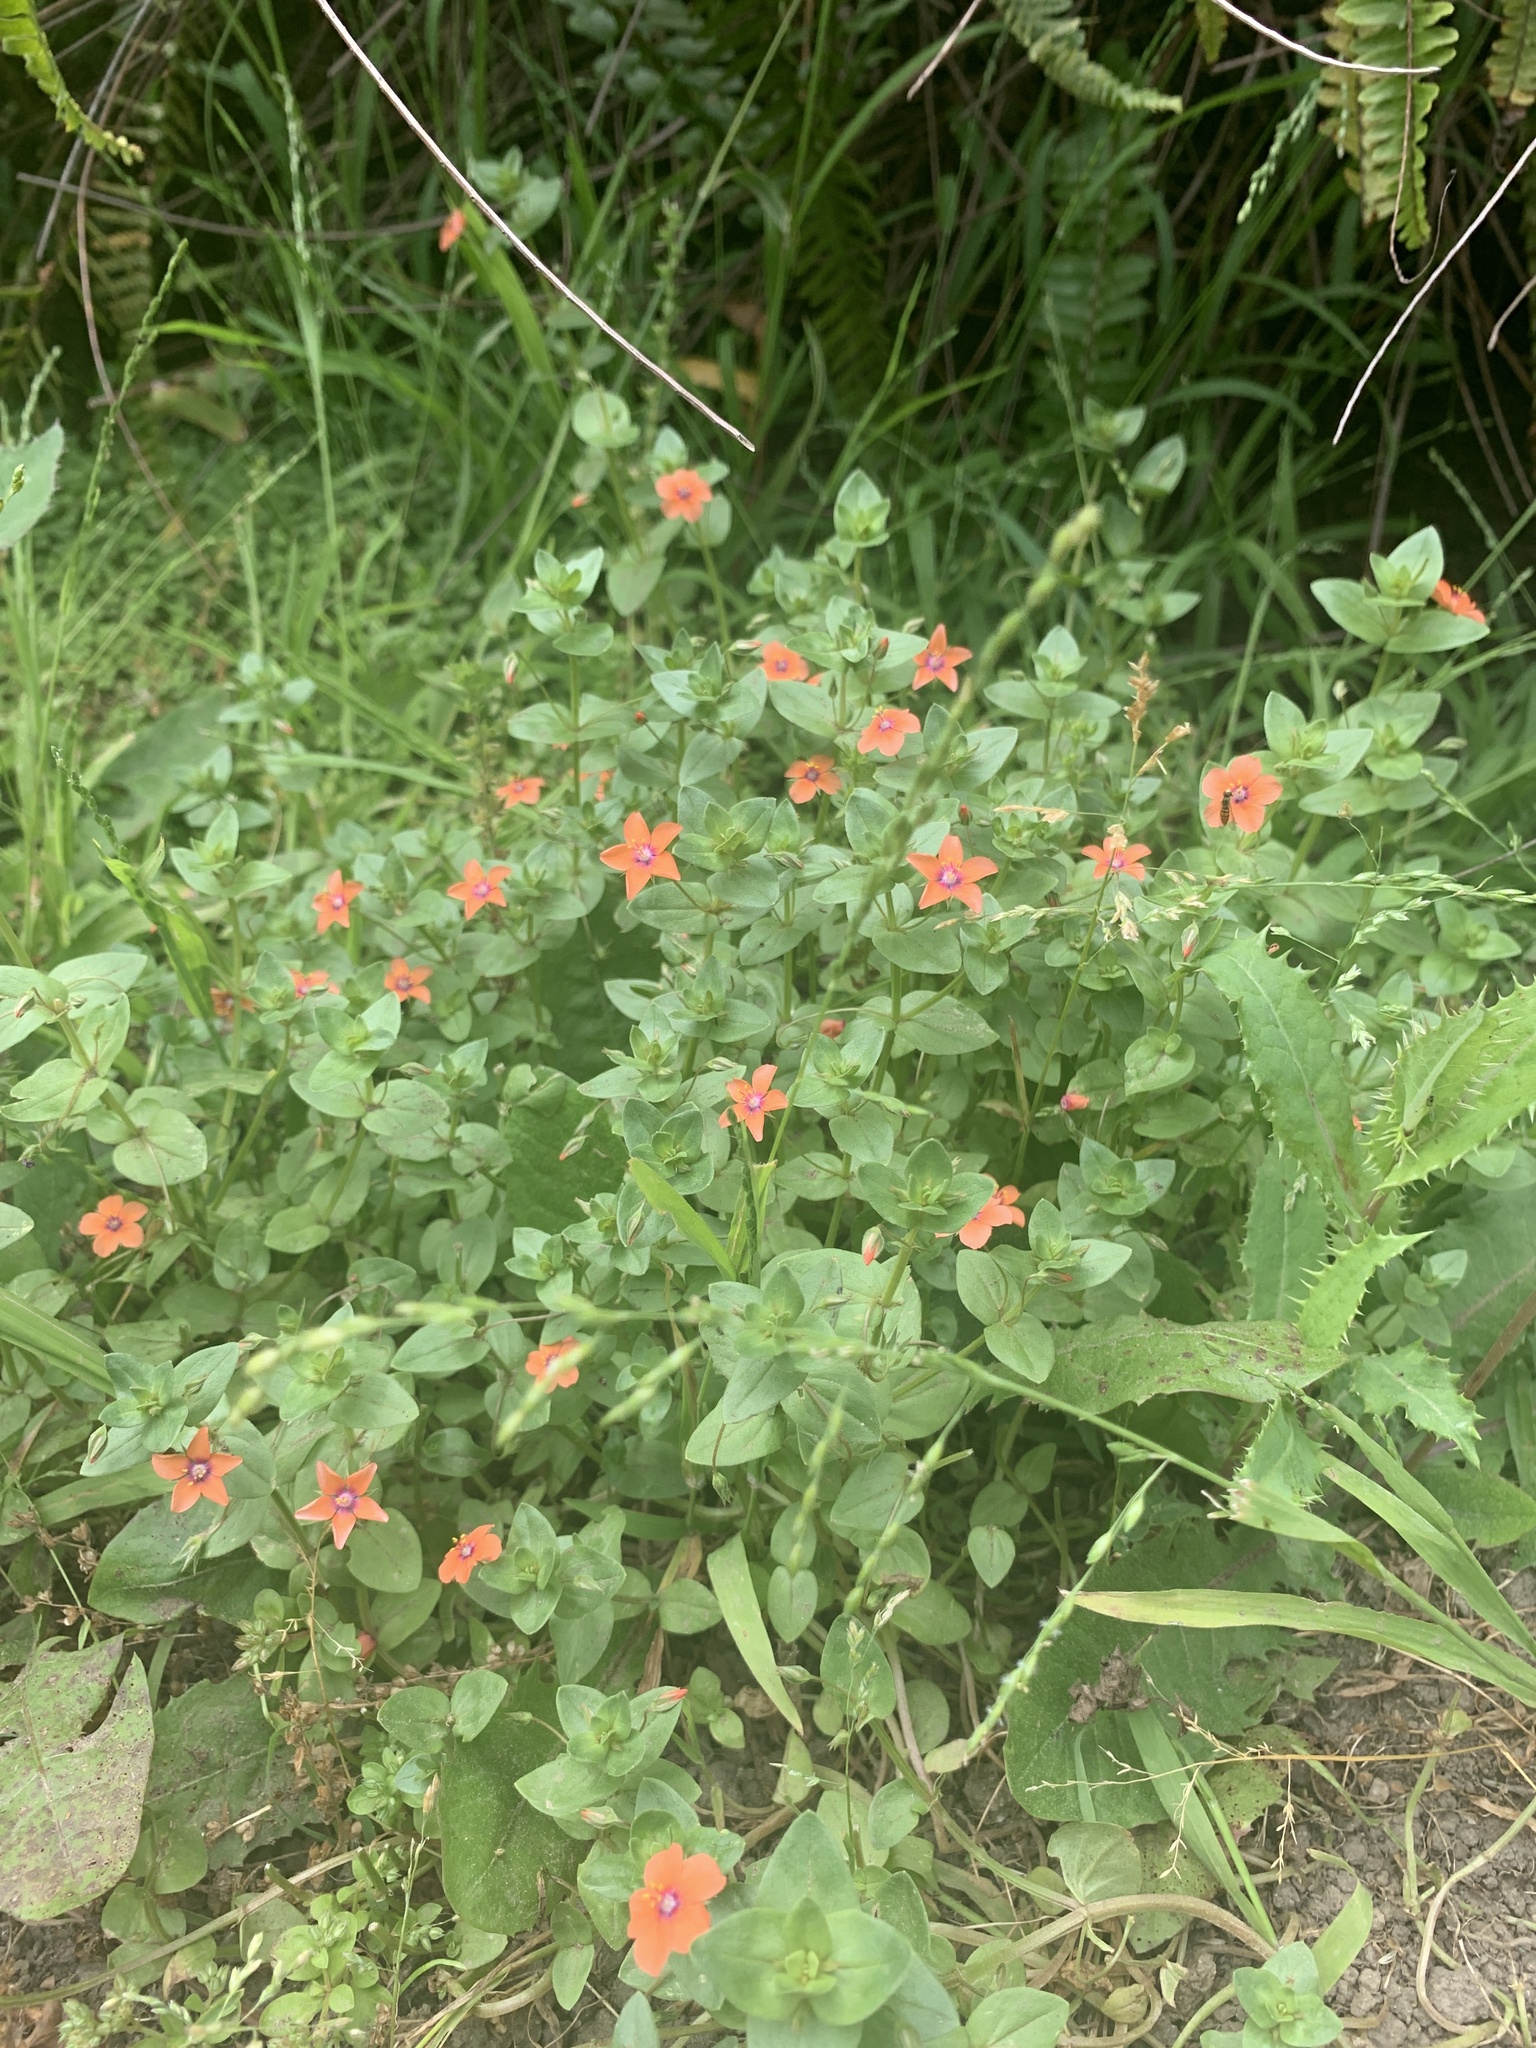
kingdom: Plantae
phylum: Tracheophyta
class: Magnoliopsida
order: Ericales
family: Primulaceae
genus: Lysimachia
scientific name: Lysimachia arvensis
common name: Scarlet pimpernel
